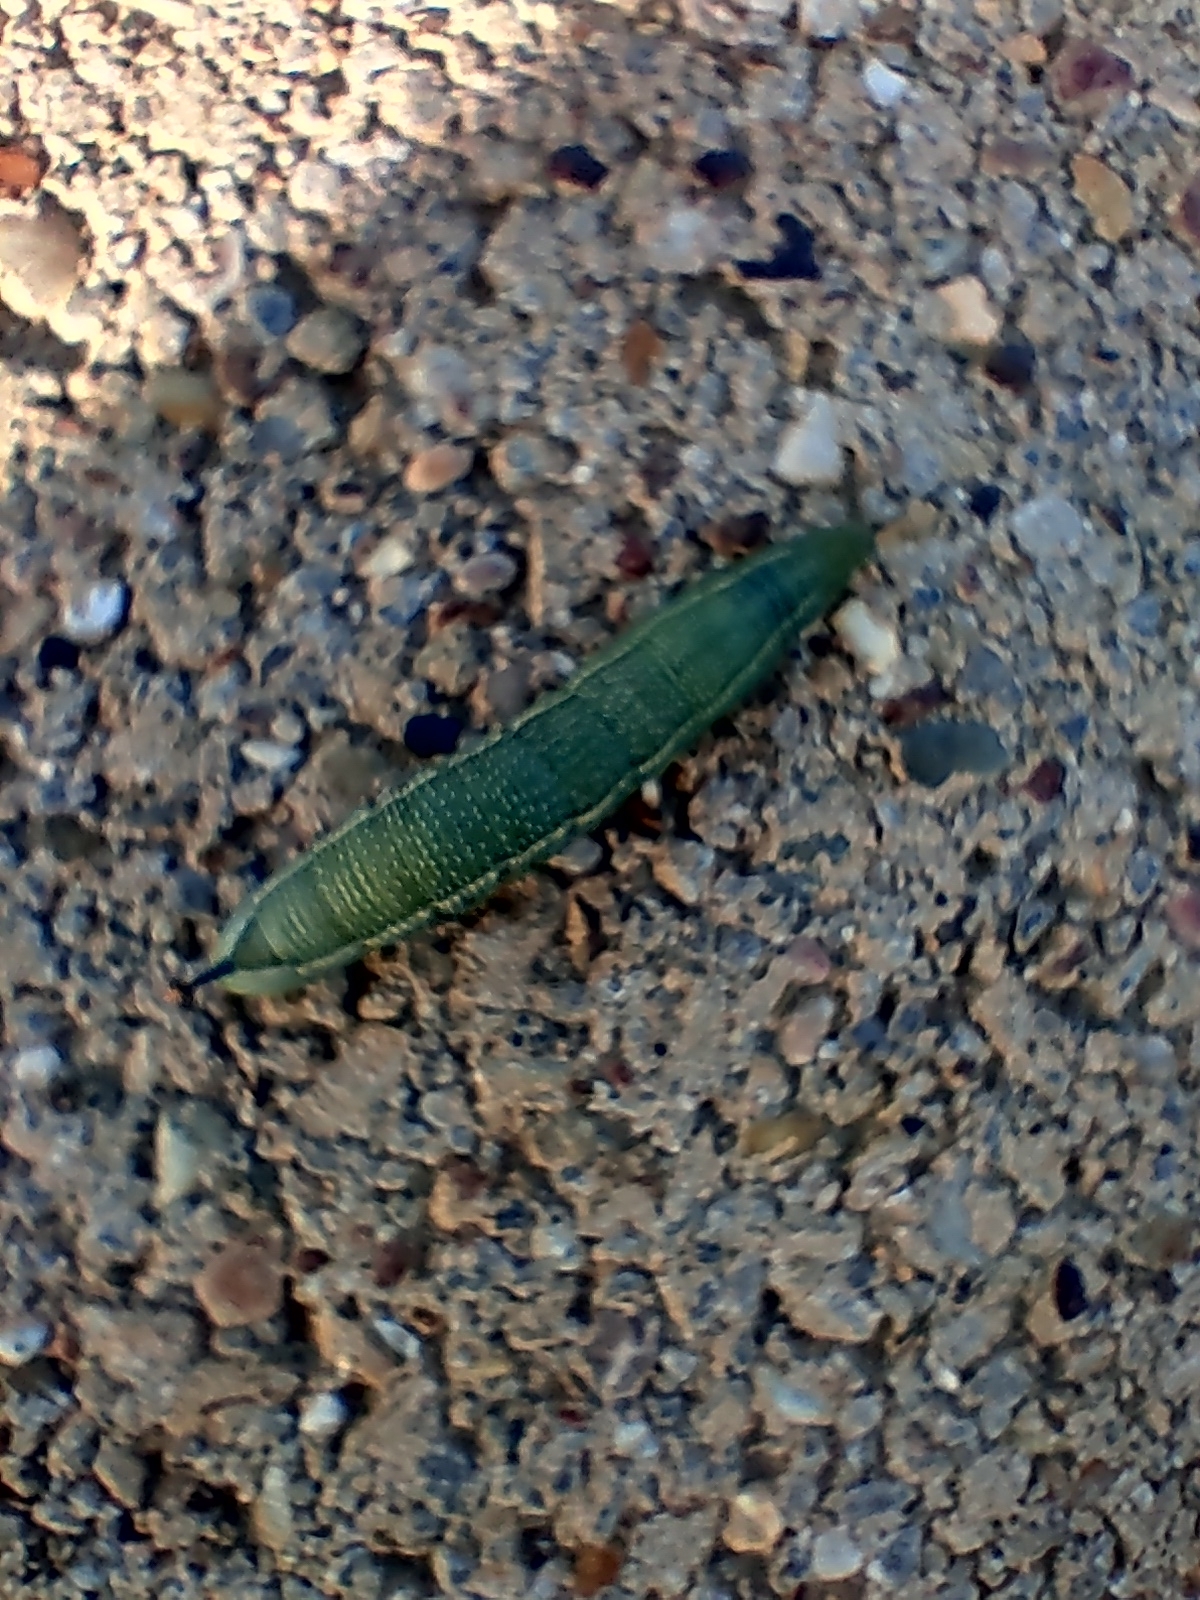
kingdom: Animalia
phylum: Arthropoda
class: Insecta
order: Lepidoptera
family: Sphingidae
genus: Macroglossum
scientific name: Macroglossum stellatarum
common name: Humming-bird hawk-moth
